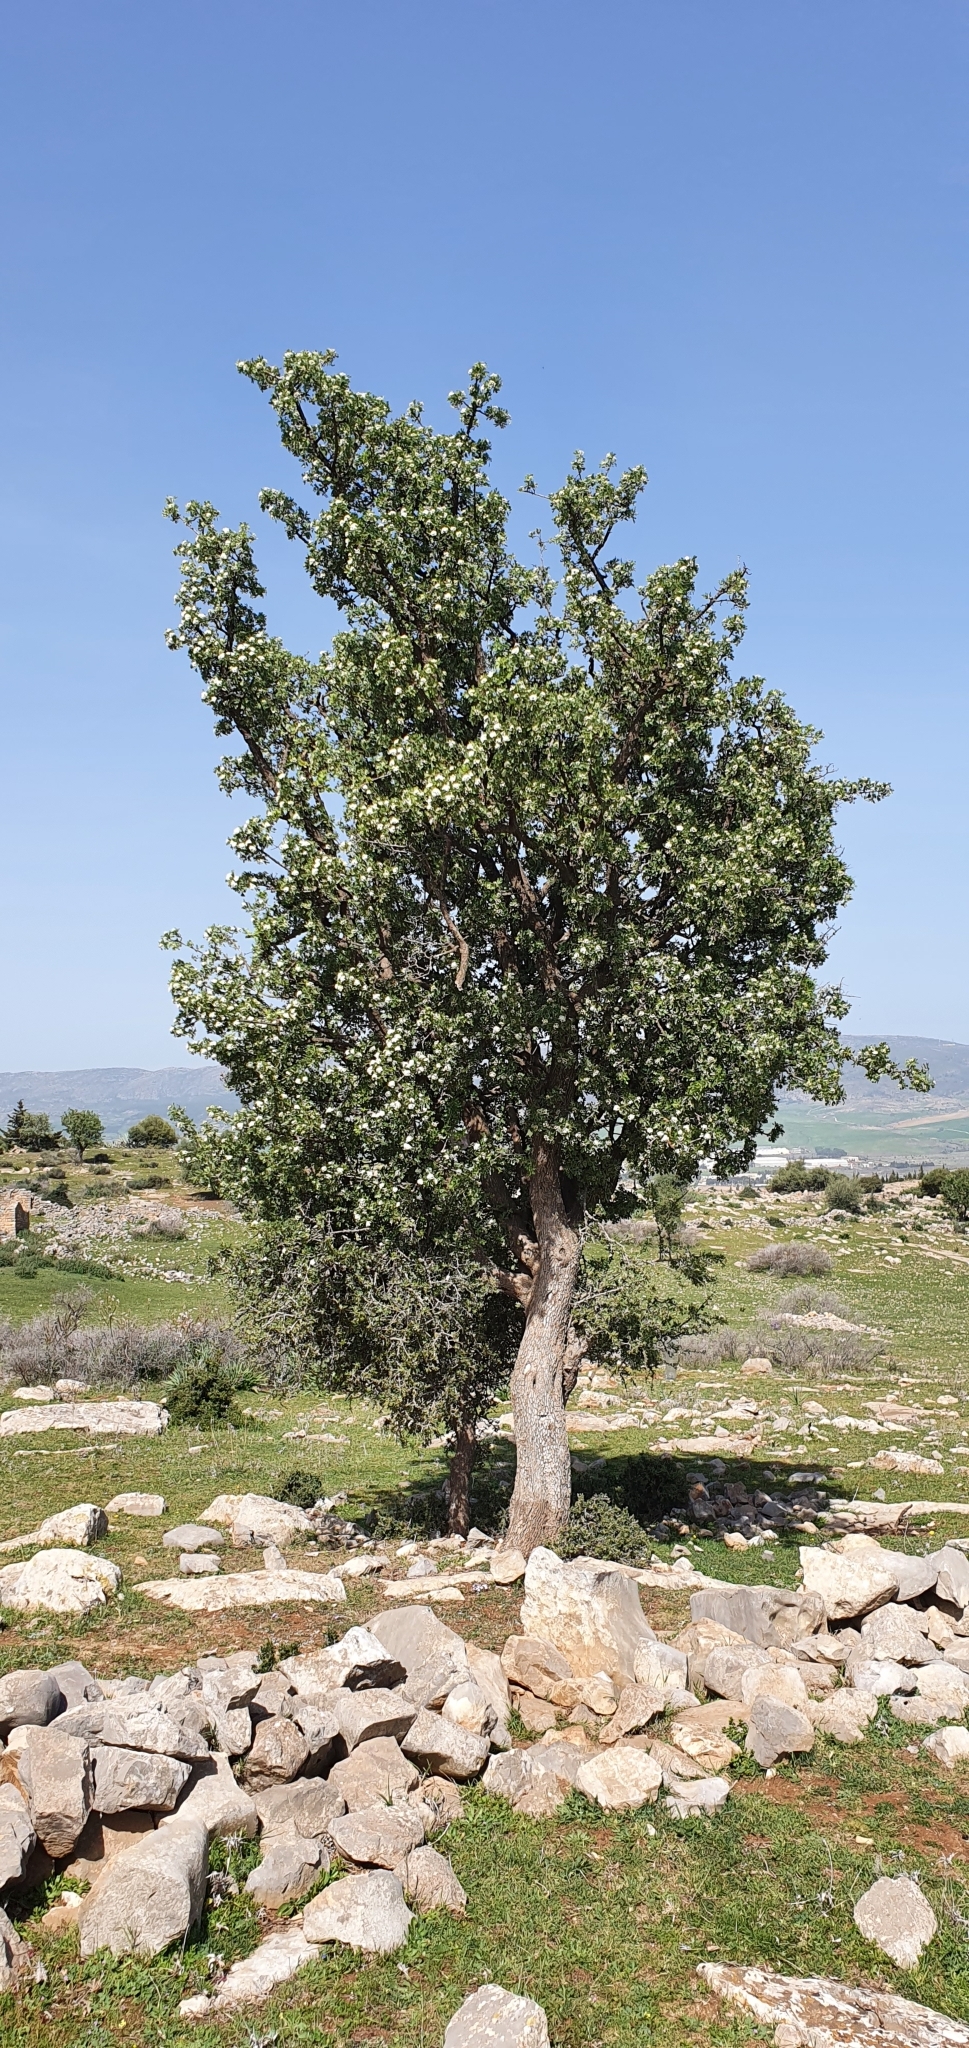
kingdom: Plantae
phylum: Tracheophyta
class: Magnoliopsida
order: Rosales
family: Rosaceae
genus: Crataegus
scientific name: Crataegus azarolus
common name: Azarole
